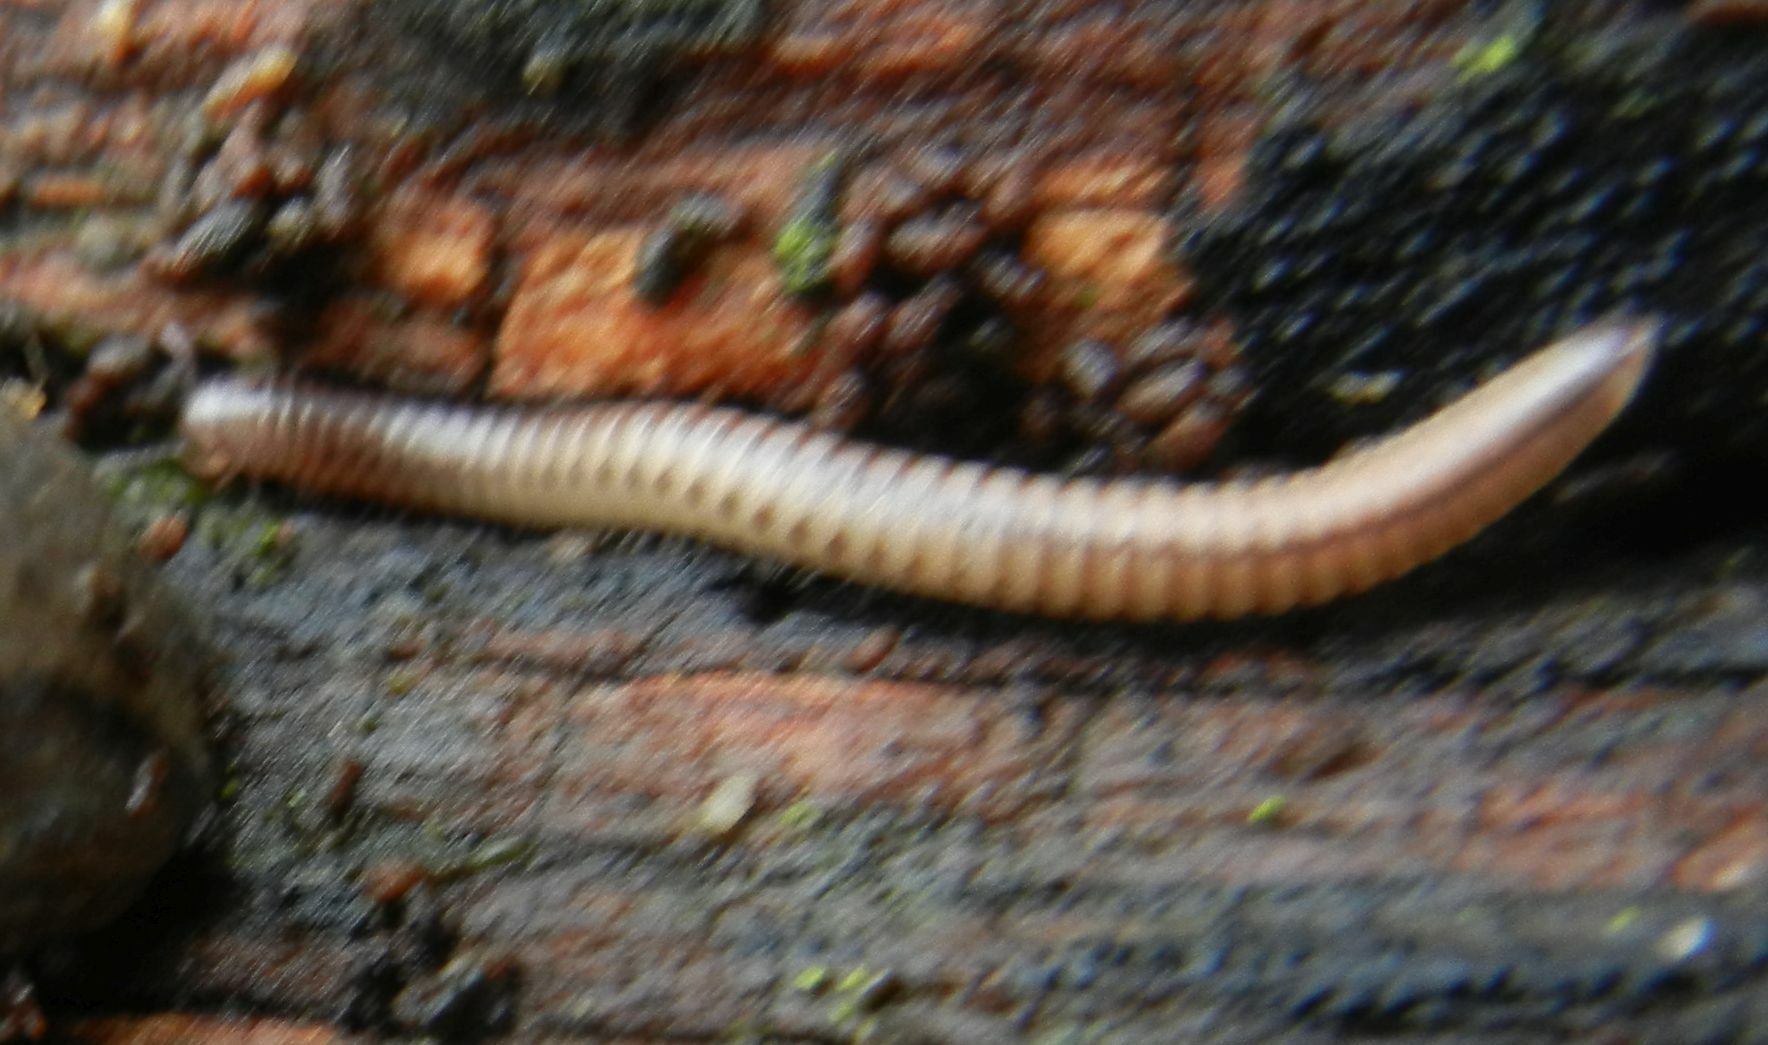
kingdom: Animalia
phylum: Arthropoda
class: Diplopoda
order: Julida
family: Julidae
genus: Cylindroiulus
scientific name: Cylindroiulus punctatus
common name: Blunt-tailed millipede
